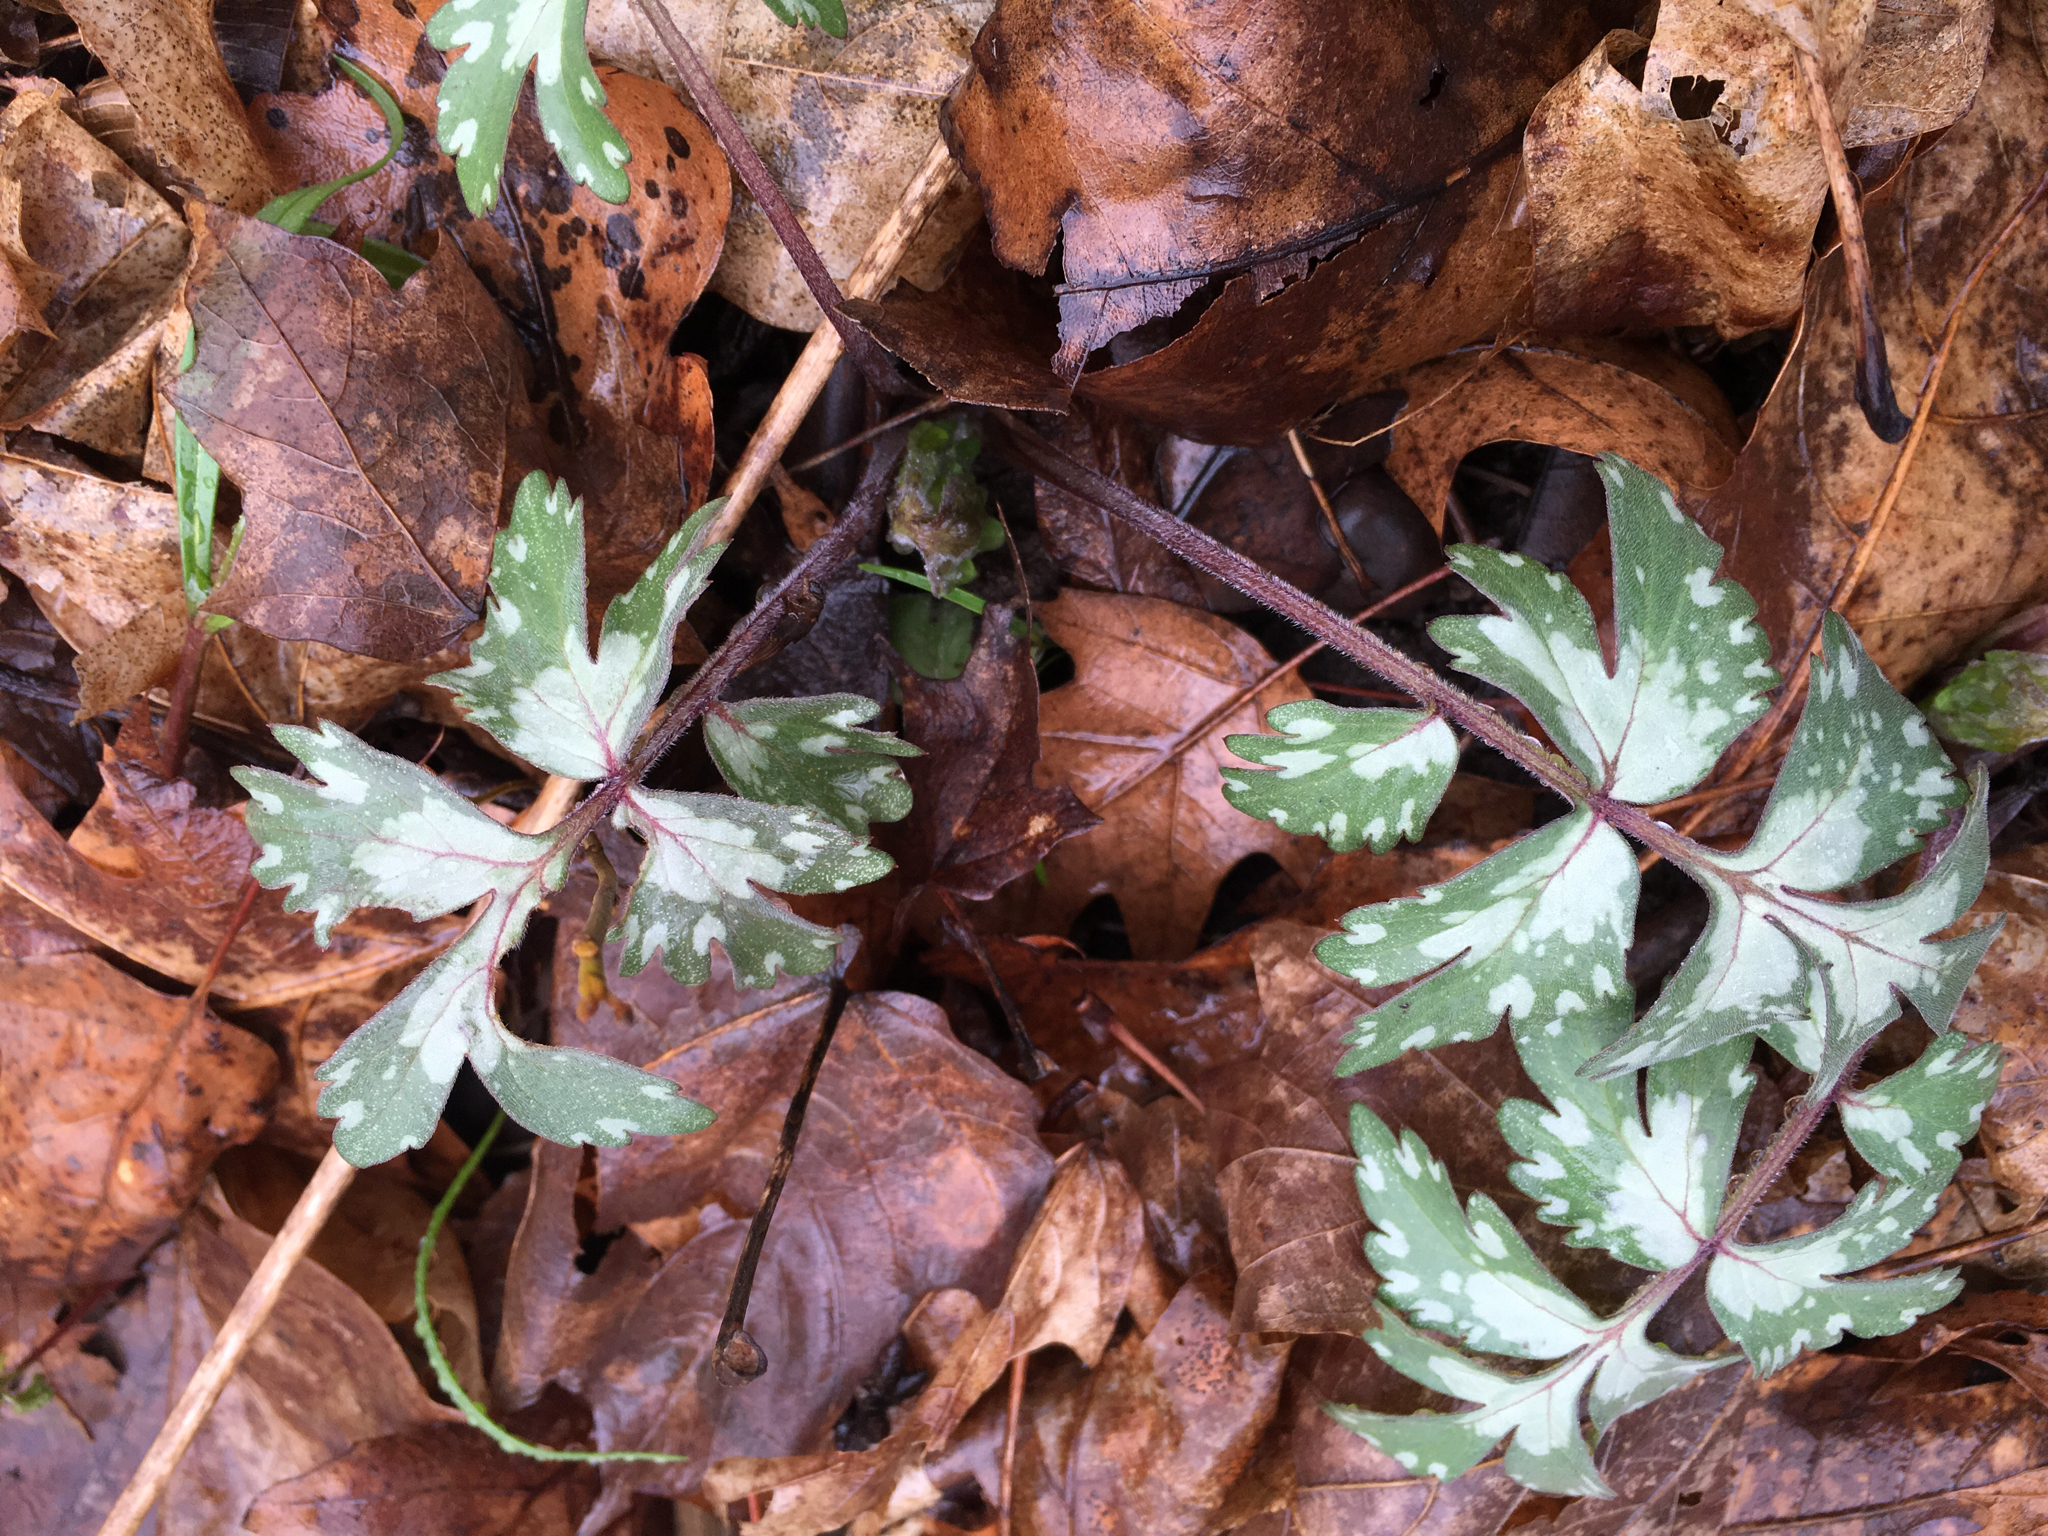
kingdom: Plantae
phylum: Tracheophyta
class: Magnoliopsida
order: Boraginales
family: Hydrophyllaceae
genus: Hydrophyllum
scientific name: Hydrophyllum virginianum
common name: Virginia waterleaf
